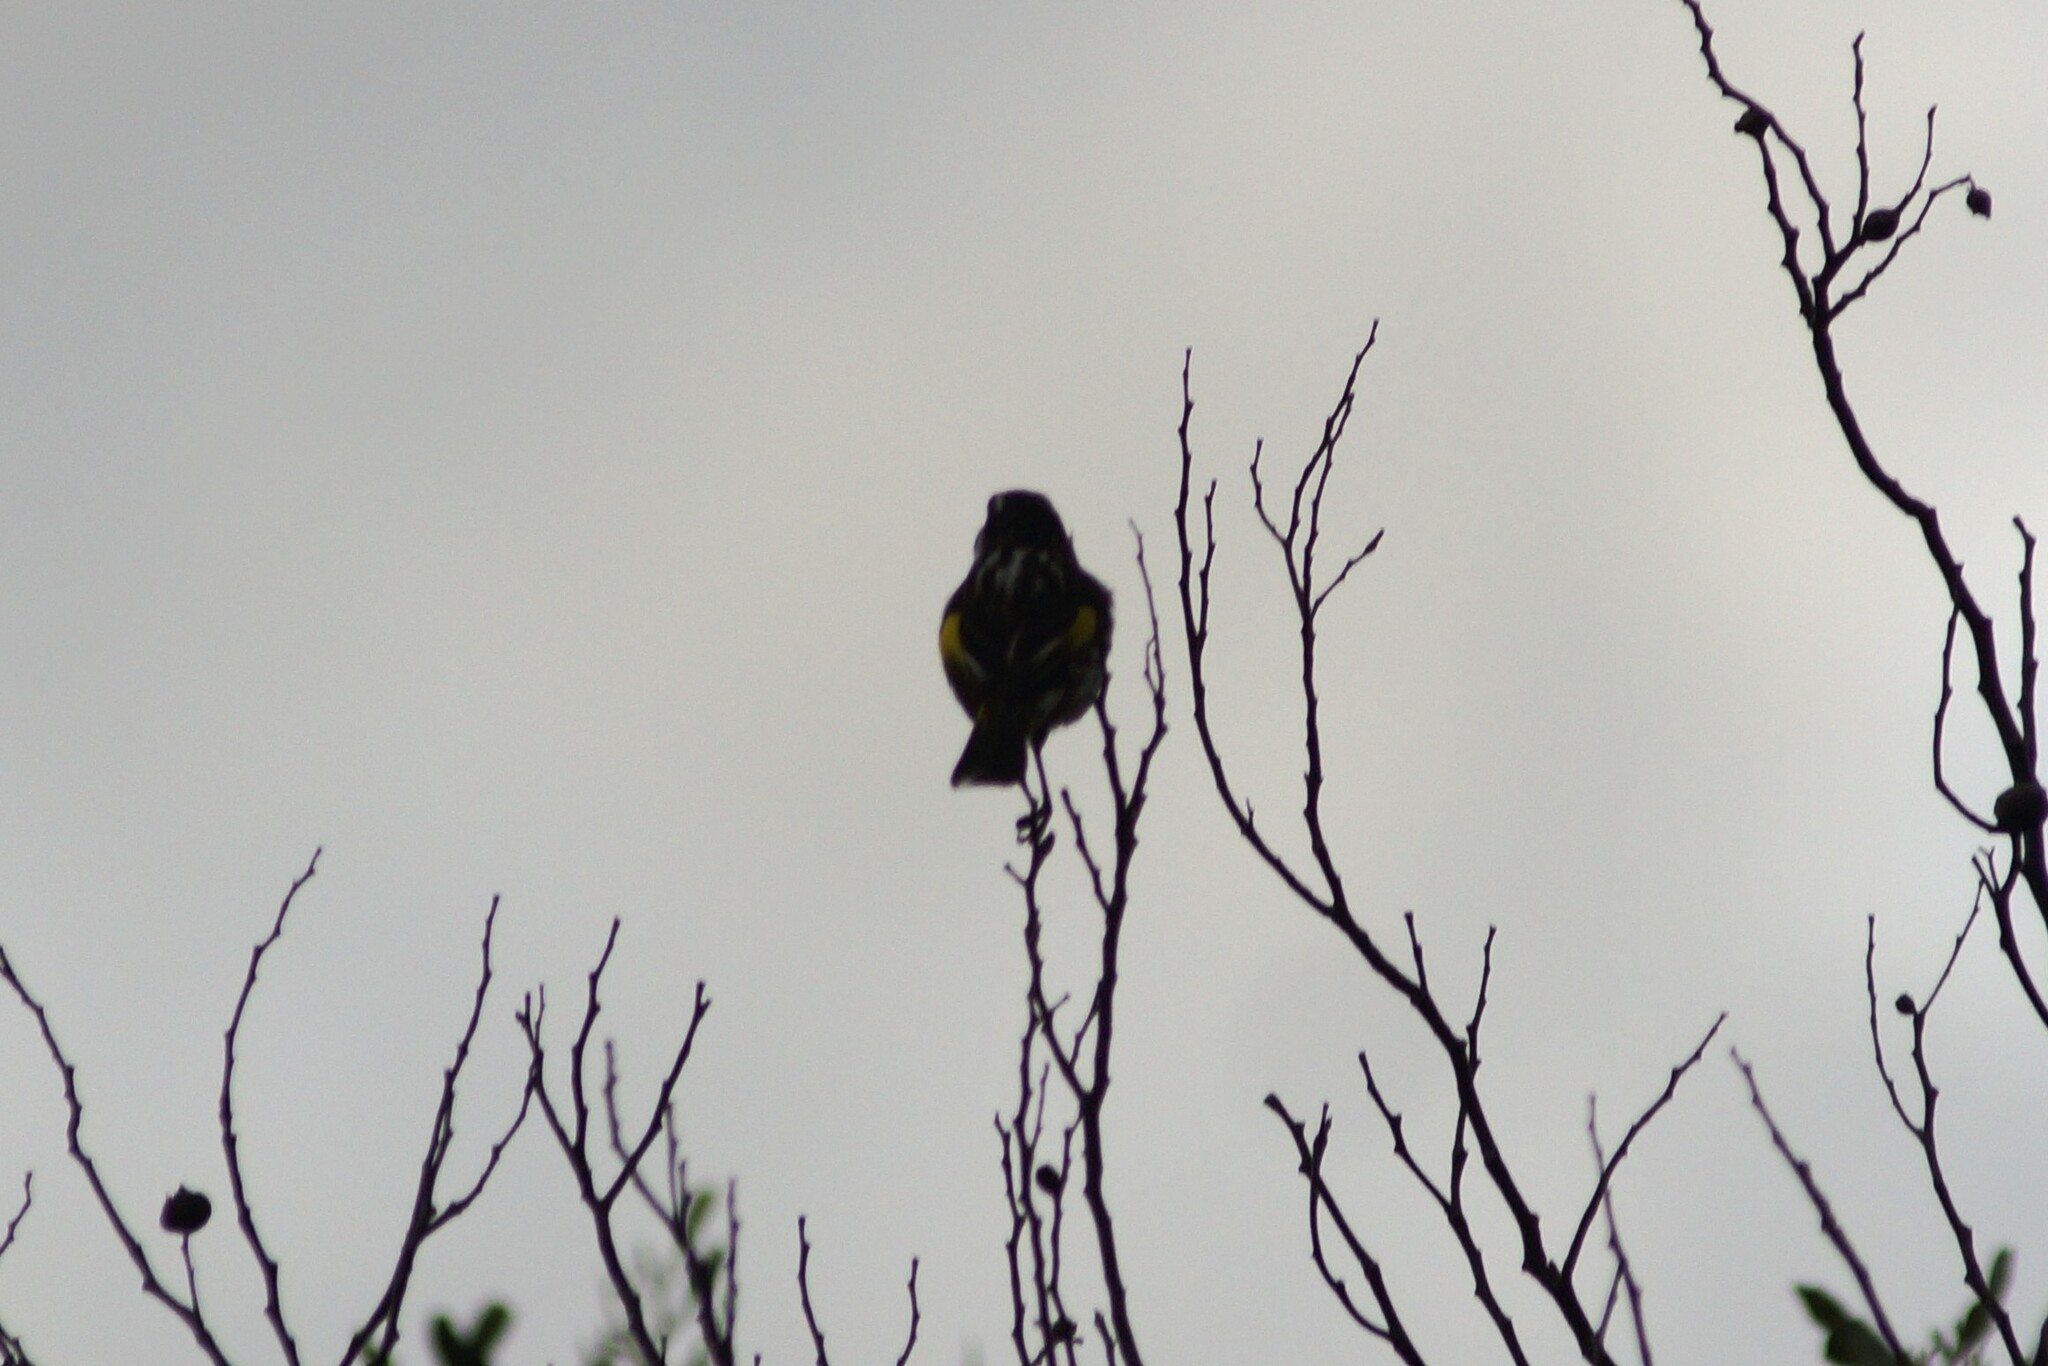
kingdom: Animalia
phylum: Chordata
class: Aves
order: Passeriformes
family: Meliphagidae
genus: Phylidonyris
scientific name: Phylidonyris novaehollandiae
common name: New holland honeyeater
